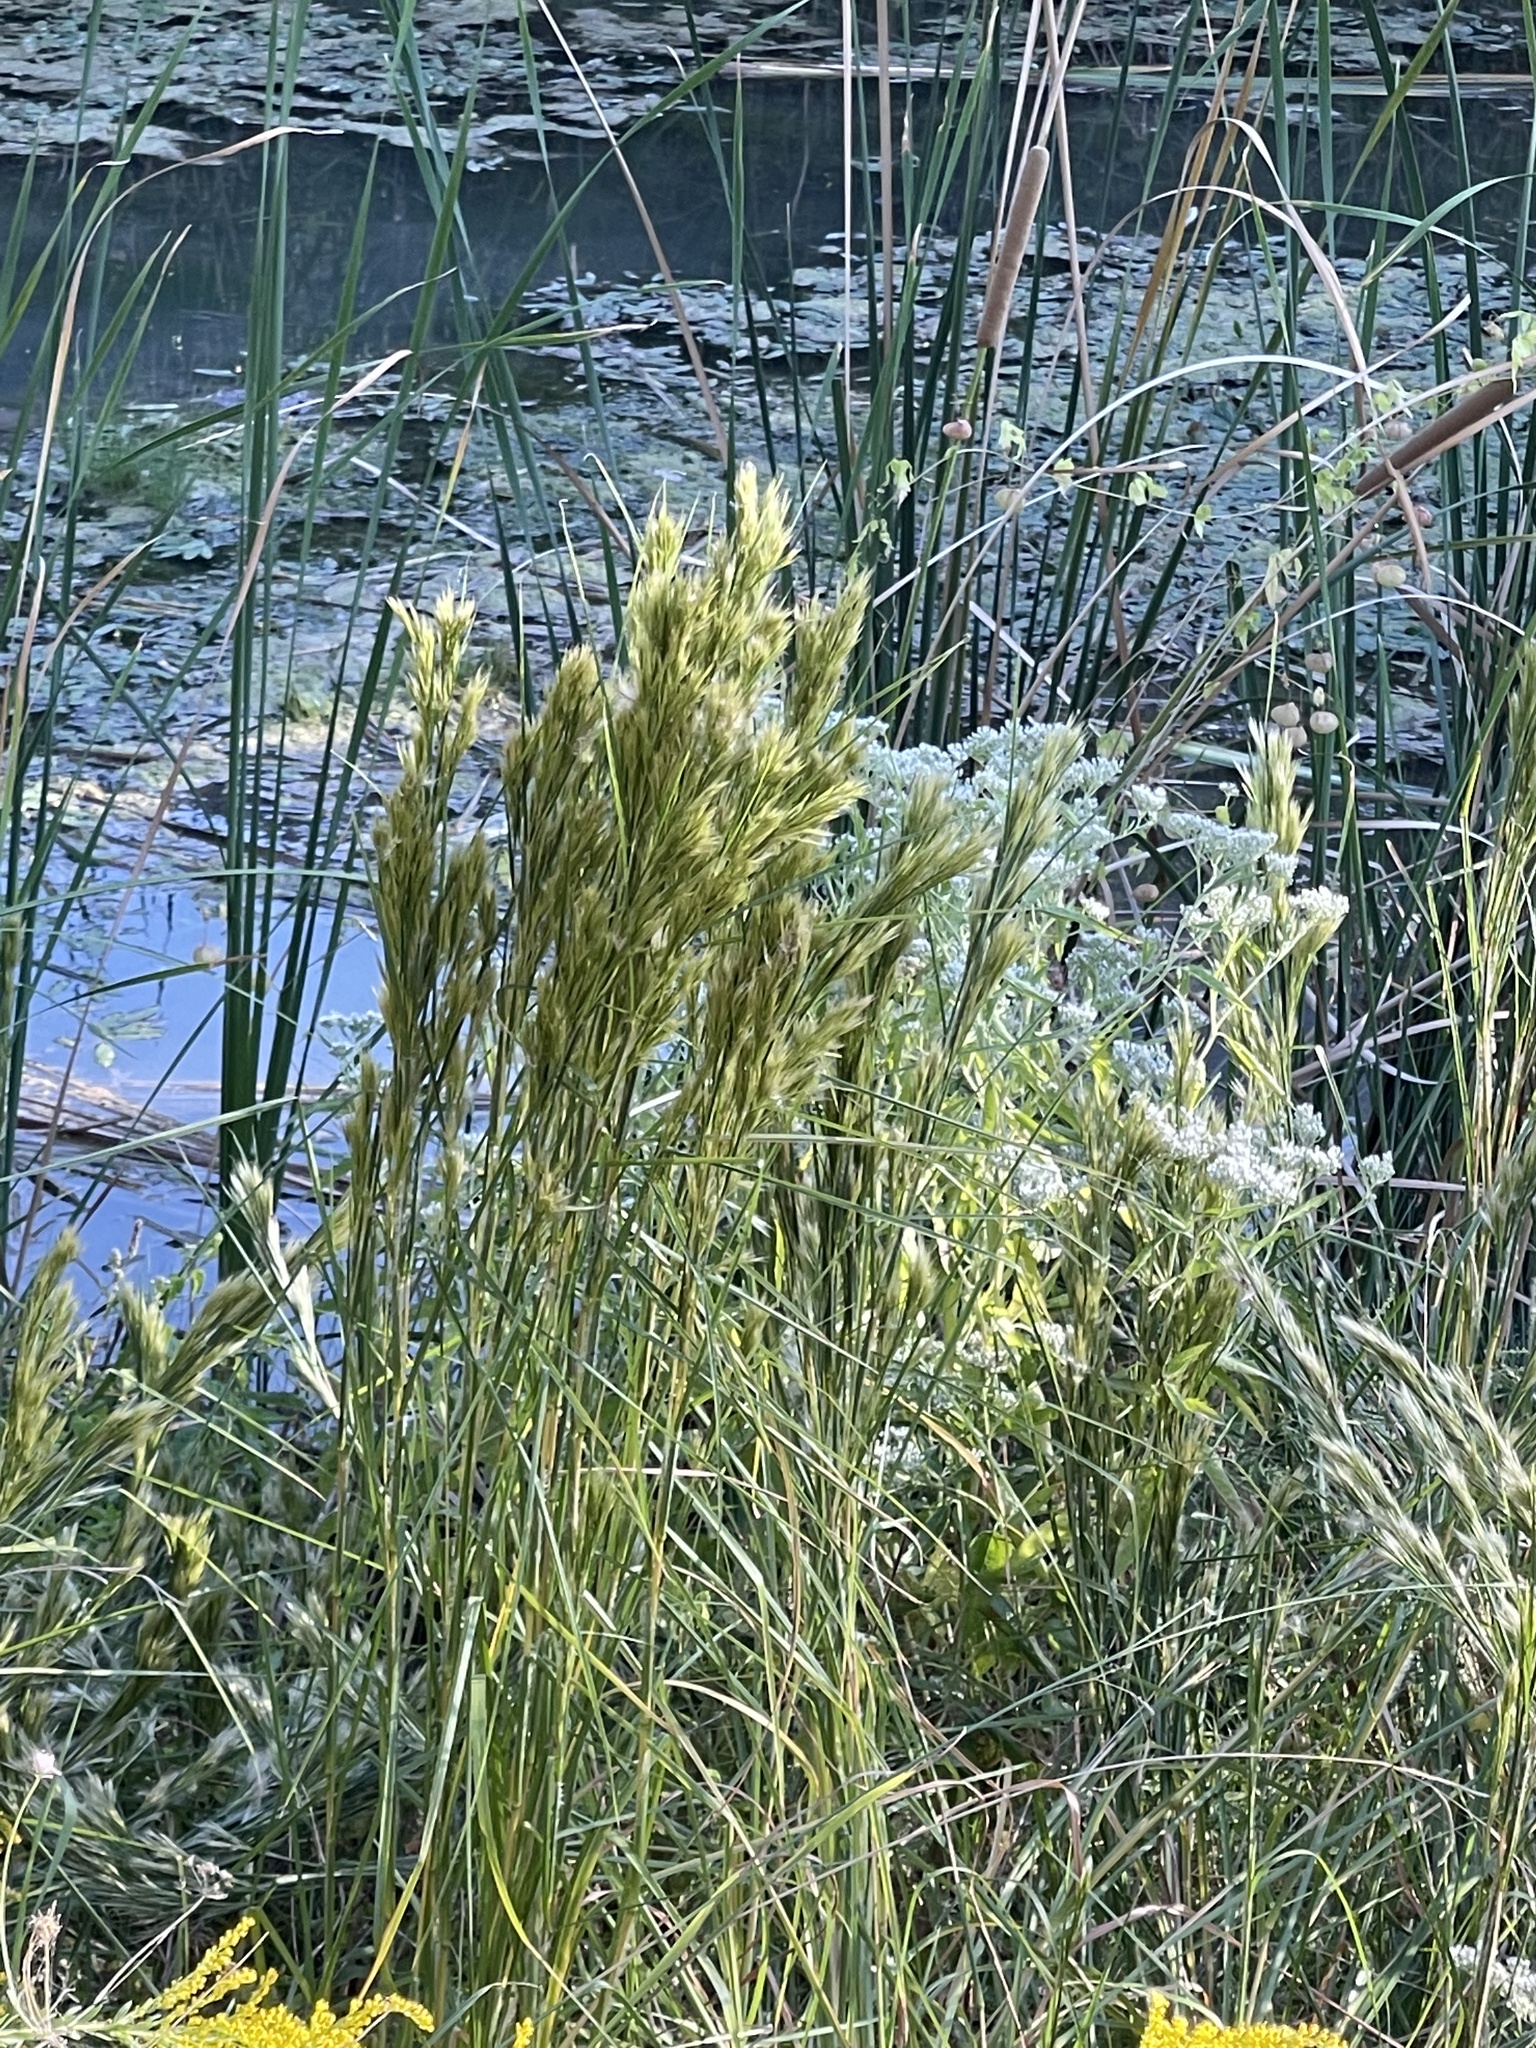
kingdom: Plantae
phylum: Tracheophyta
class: Liliopsida
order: Poales
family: Poaceae
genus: Andropogon
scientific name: Andropogon tenuispatheus
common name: Bushy bluestem
